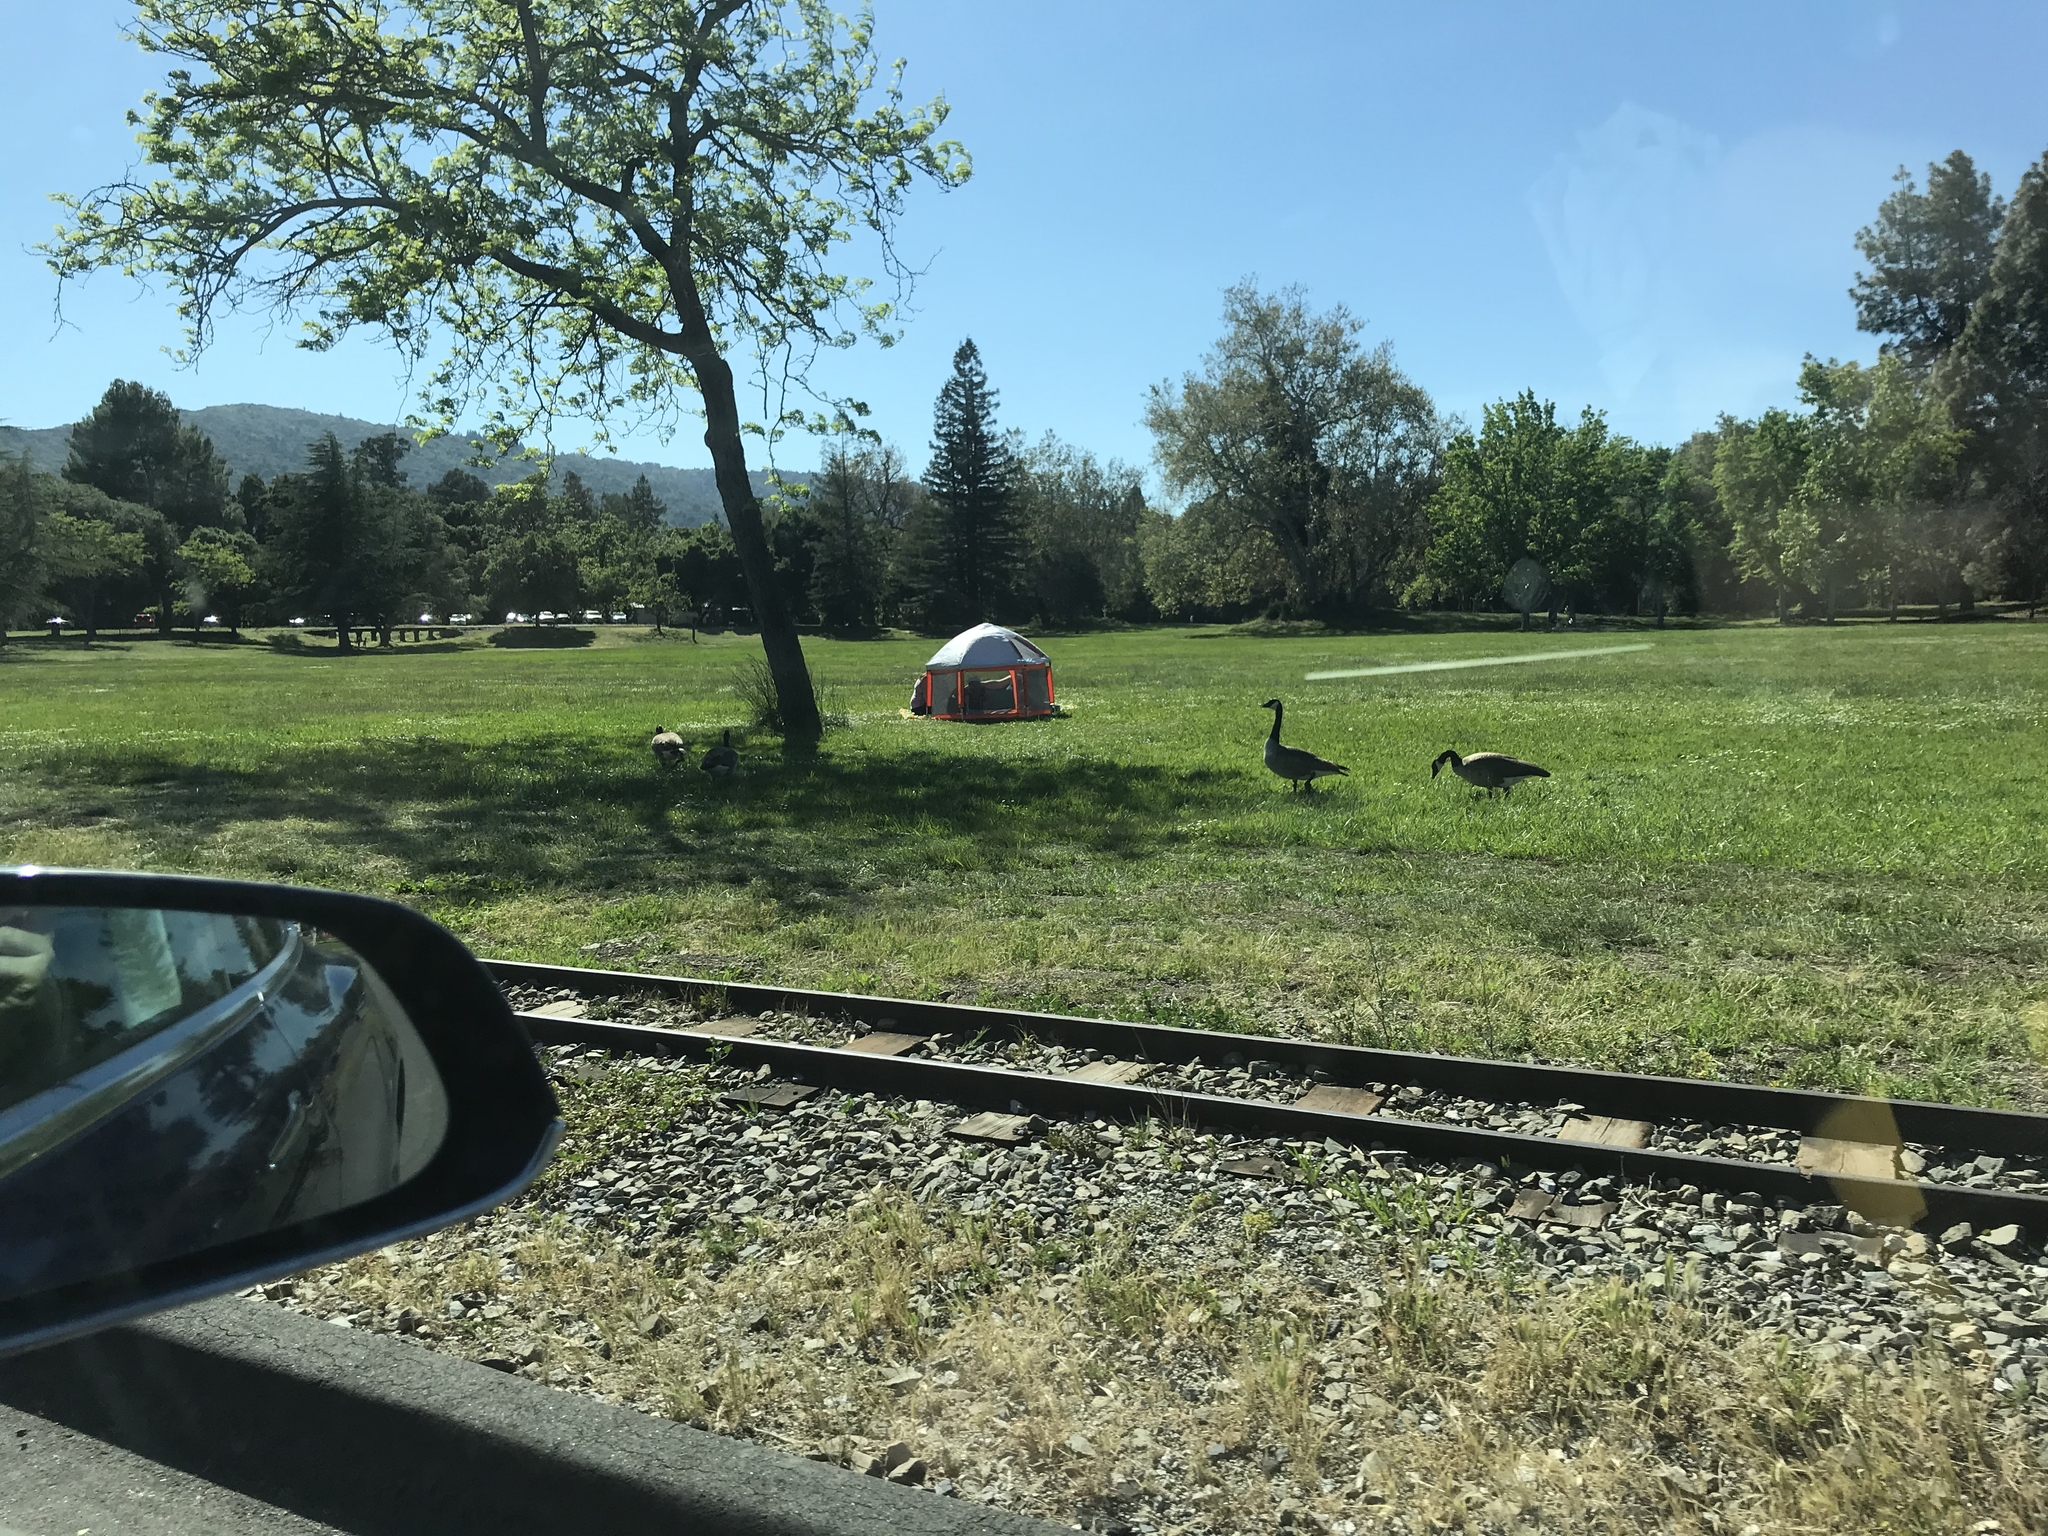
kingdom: Animalia
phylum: Chordata
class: Aves
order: Anseriformes
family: Anatidae
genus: Branta
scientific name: Branta canadensis
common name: Canada goose
